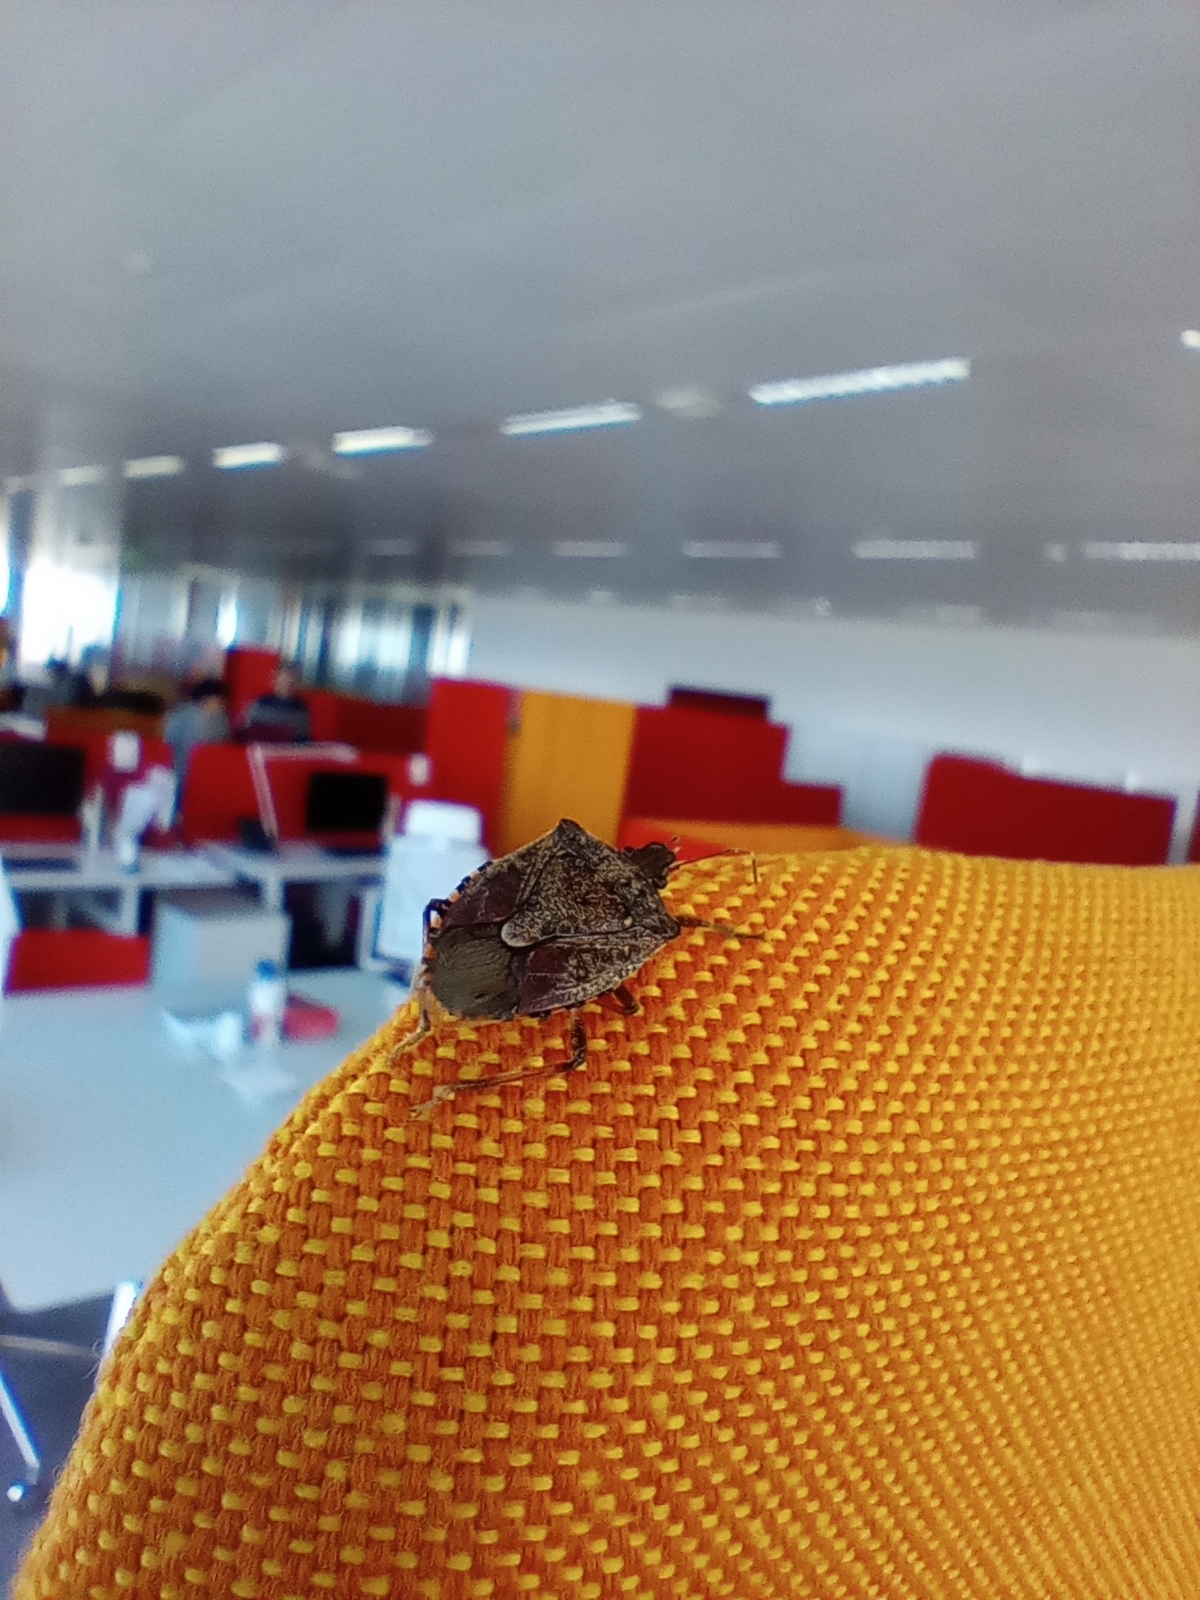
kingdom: Animalia
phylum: Arthropoda
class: Insecta
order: Hemiptera
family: Pentatomidae
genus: Halyomorpha
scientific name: Halyomorpha halys
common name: Brown marmorated stink bug
